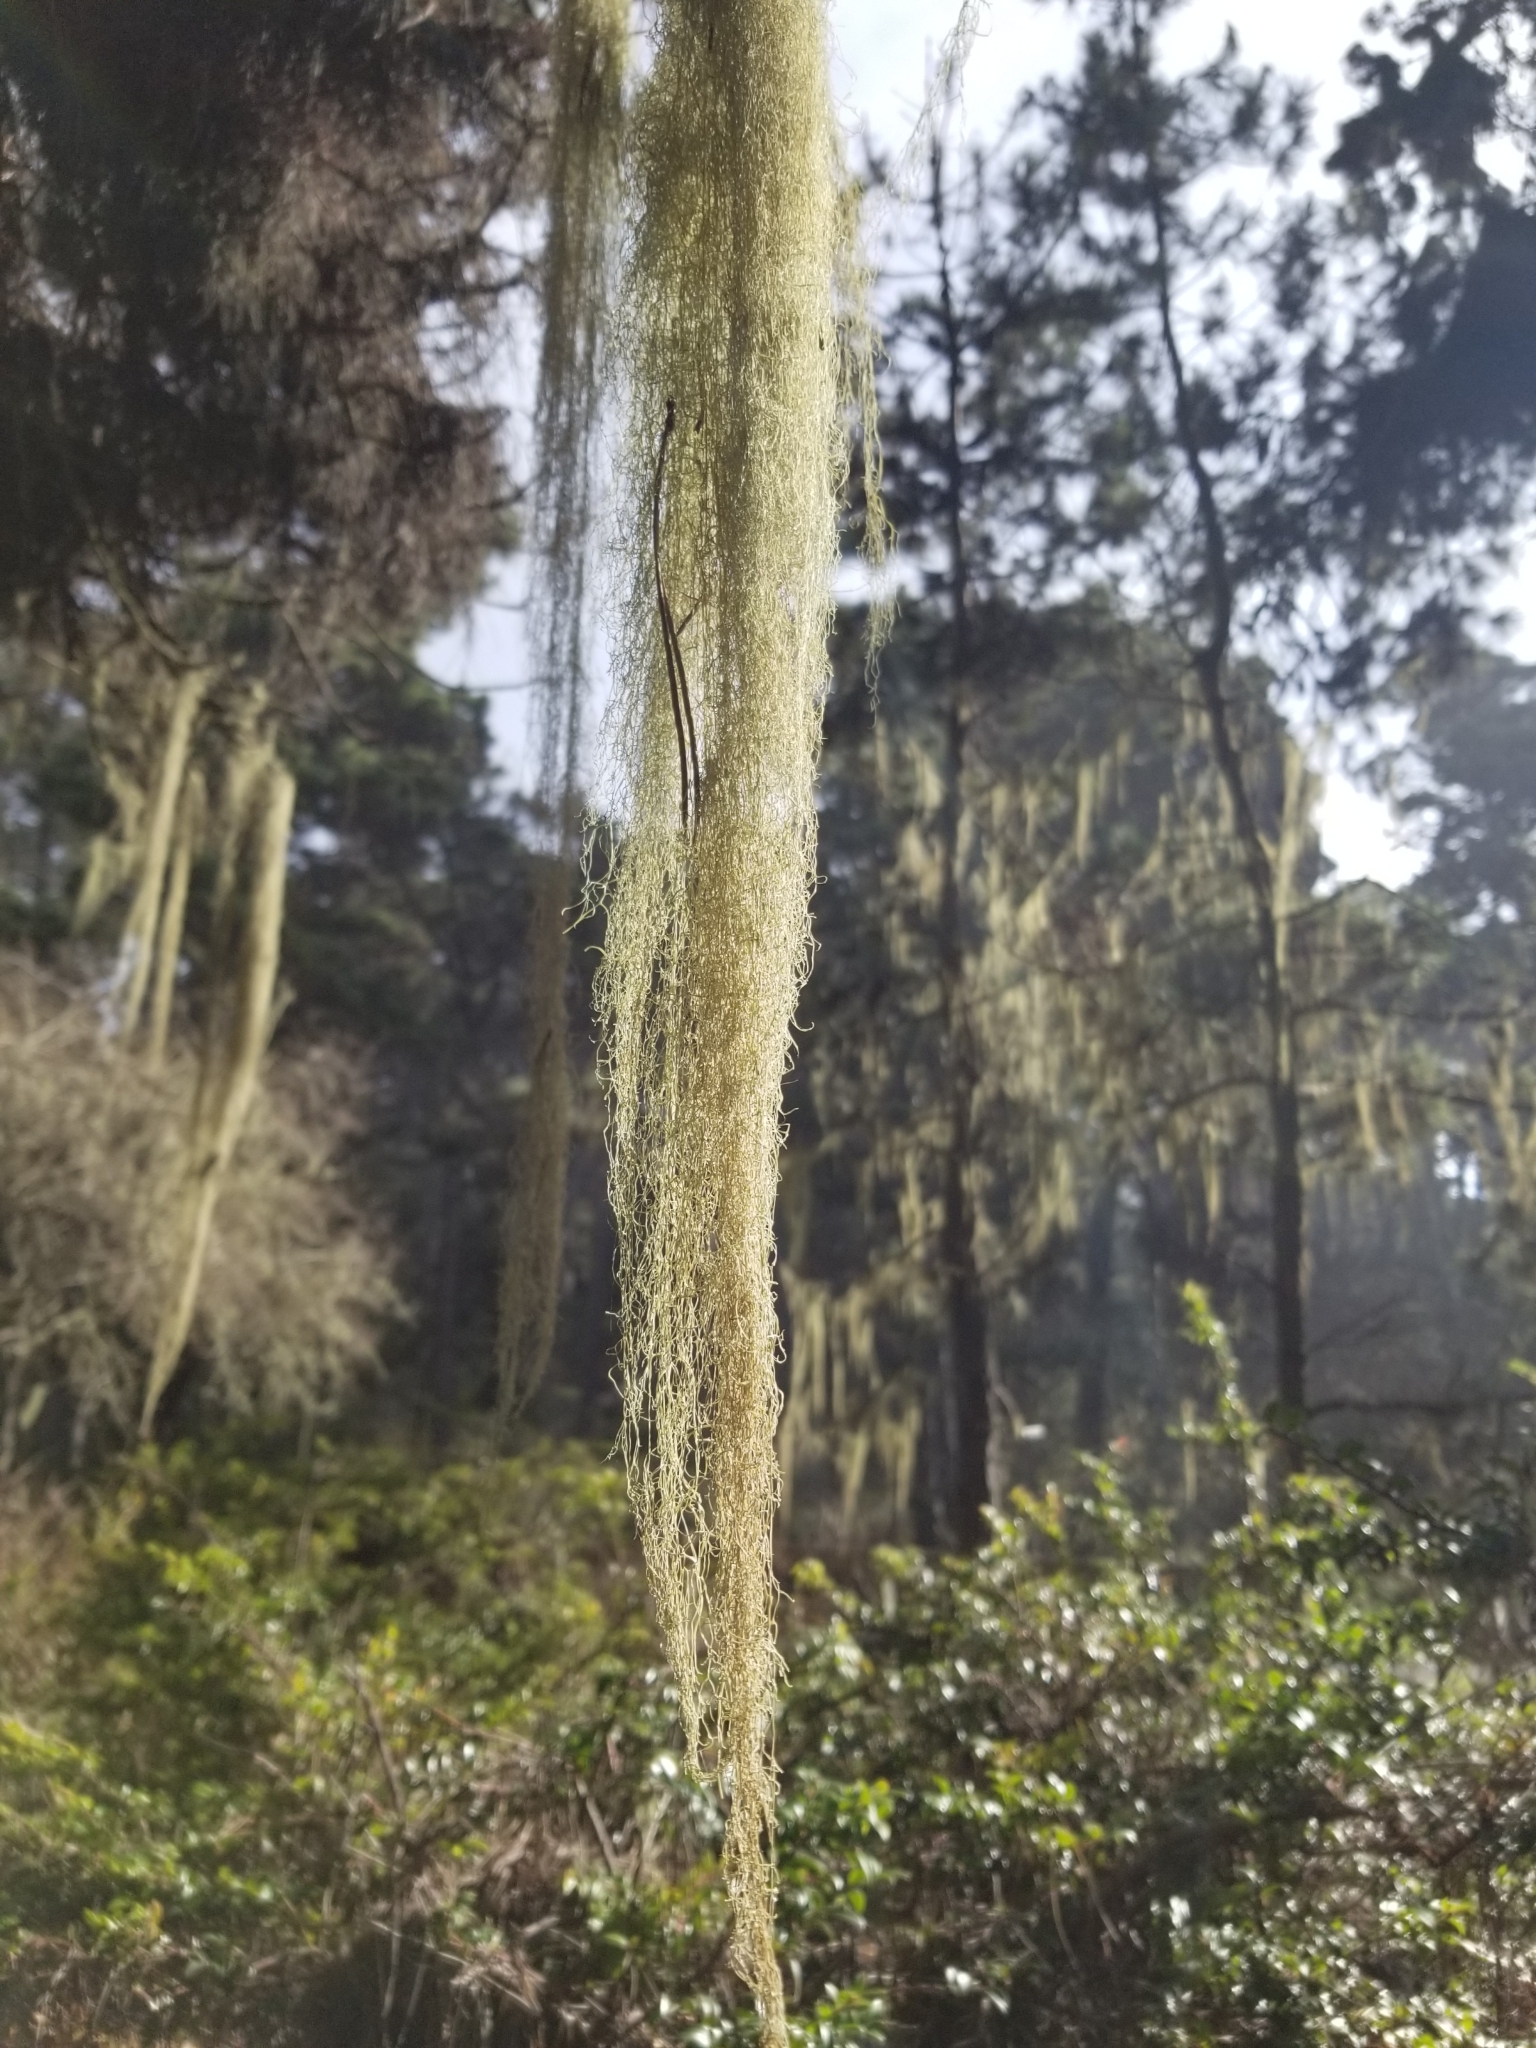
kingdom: Fungi
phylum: Ascomycota
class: Lecanoromycetes
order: Lecanorales
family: Ramalinaceae
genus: Ramalina
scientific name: Ramalina menziesii
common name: Lace lichen
